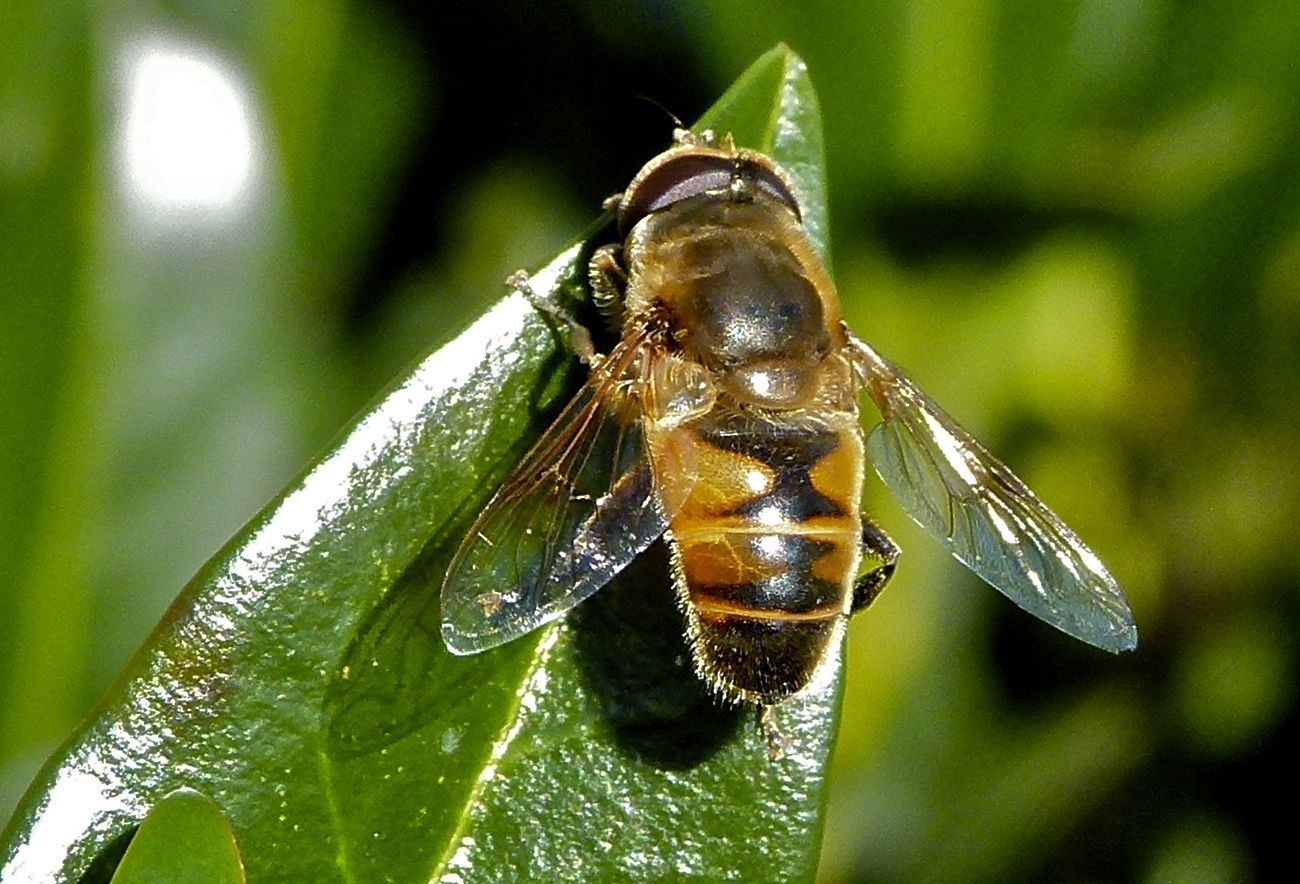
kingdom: Animalia
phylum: Arthropoda
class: Insecta
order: Diptera
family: Syrphidae
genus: Eristalis
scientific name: Eristalis tenax
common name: Drone fly
